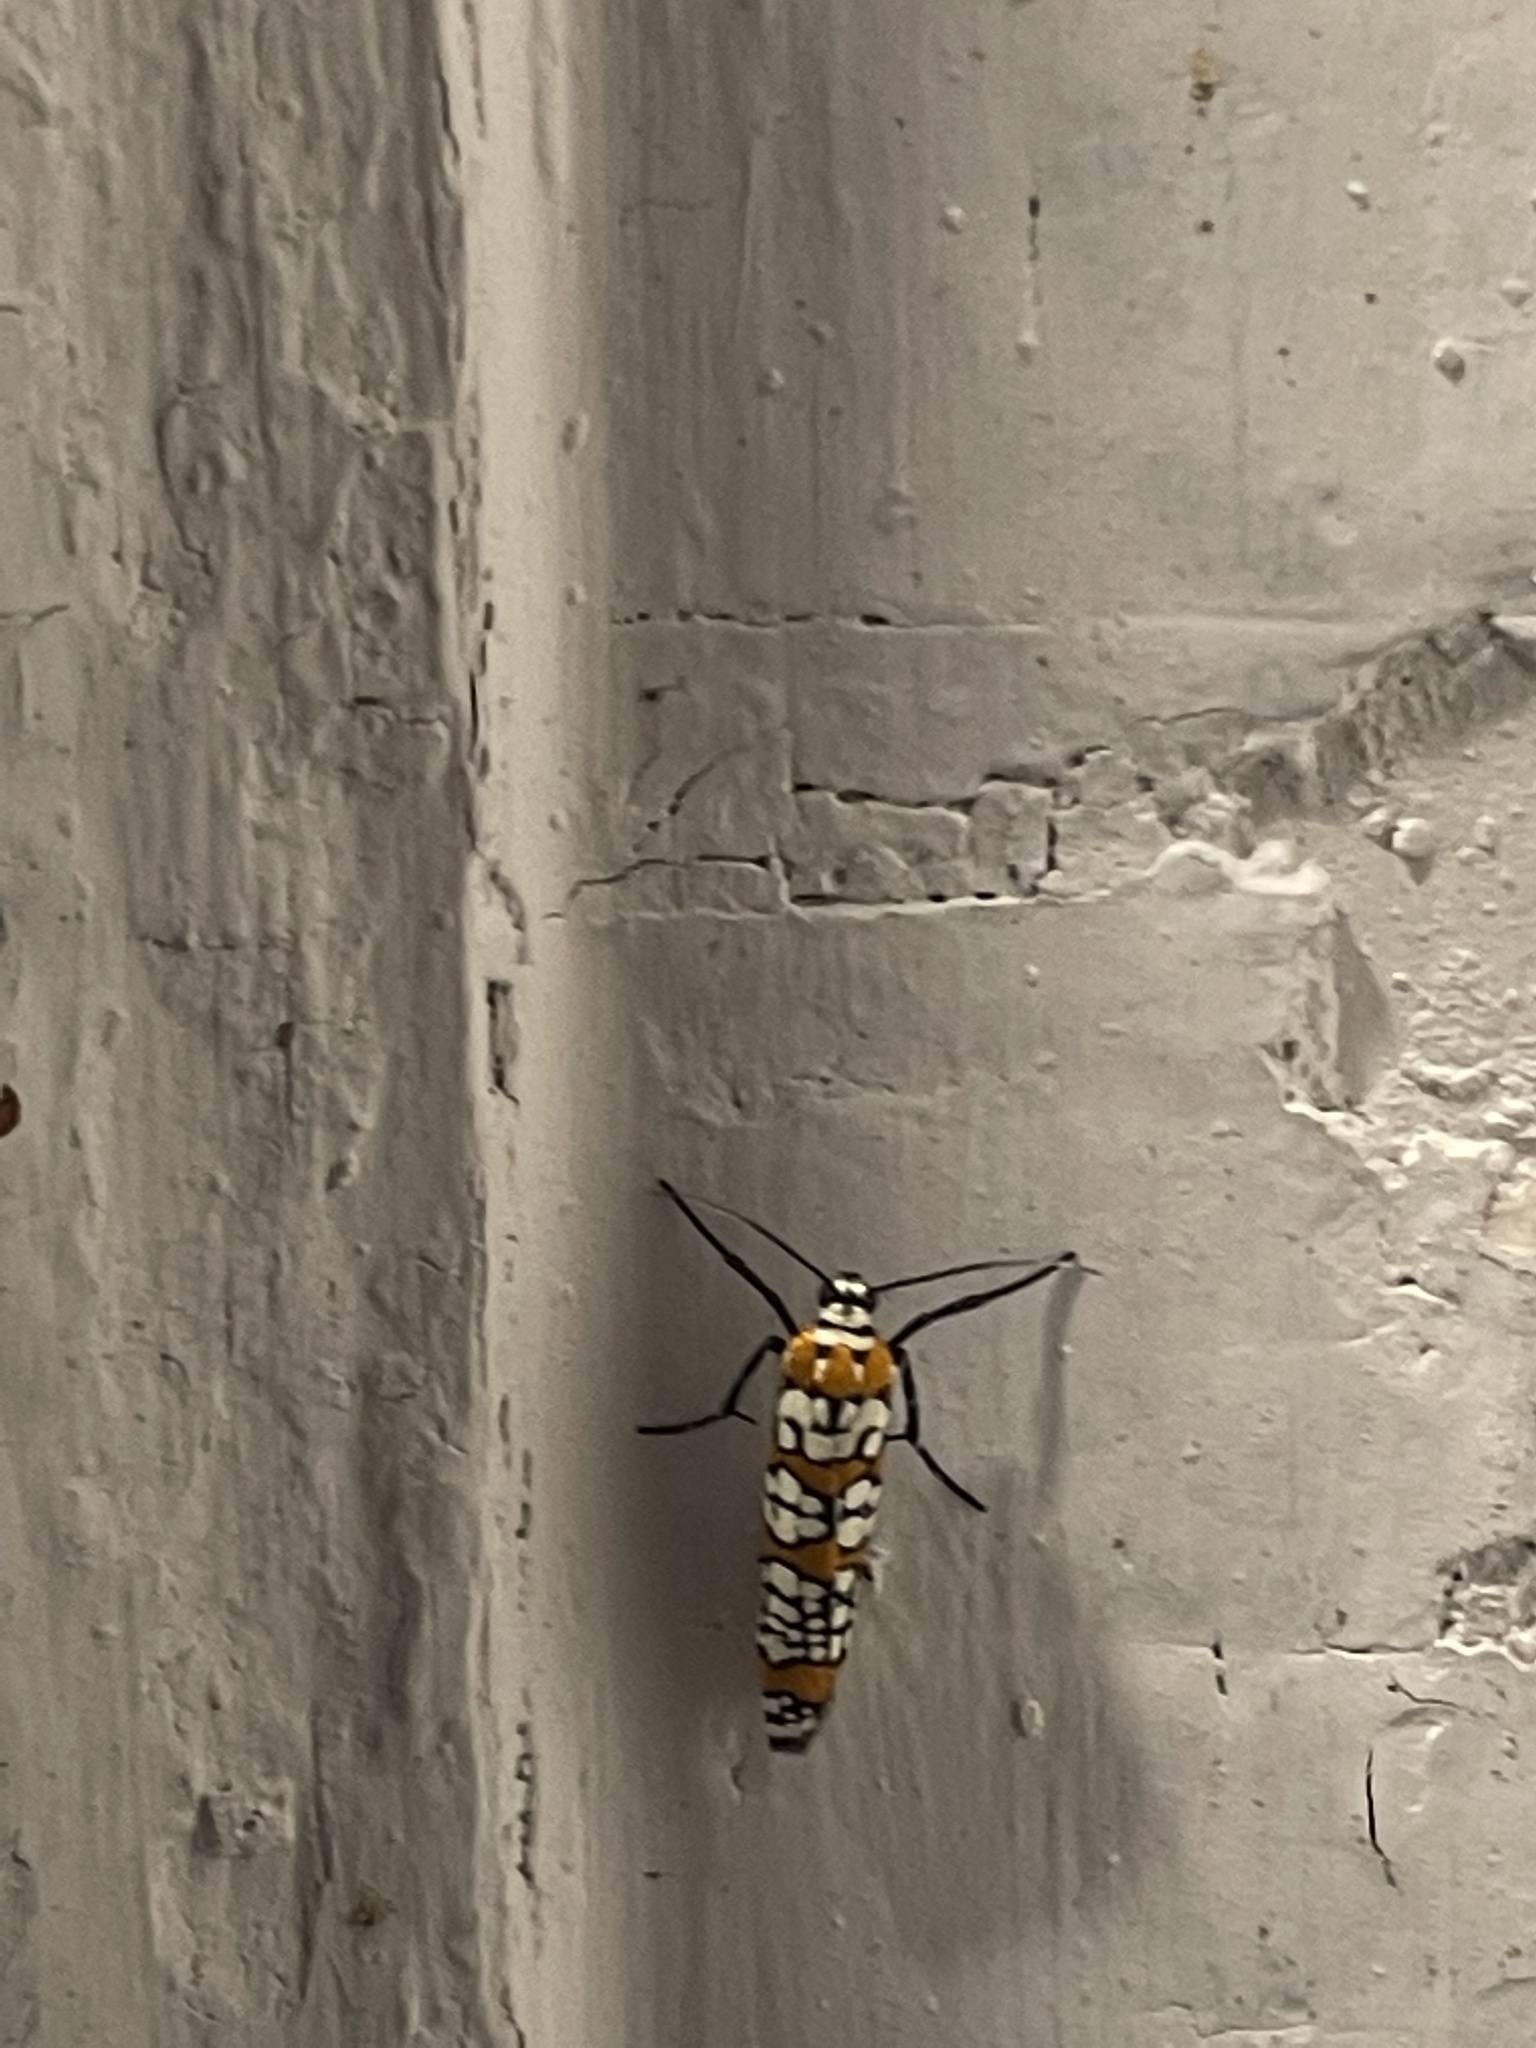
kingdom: Animalia
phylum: Arthropoda
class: Insecta
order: Lepidoptera
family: Attevidae
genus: Atteva
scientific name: Atteva punctella
